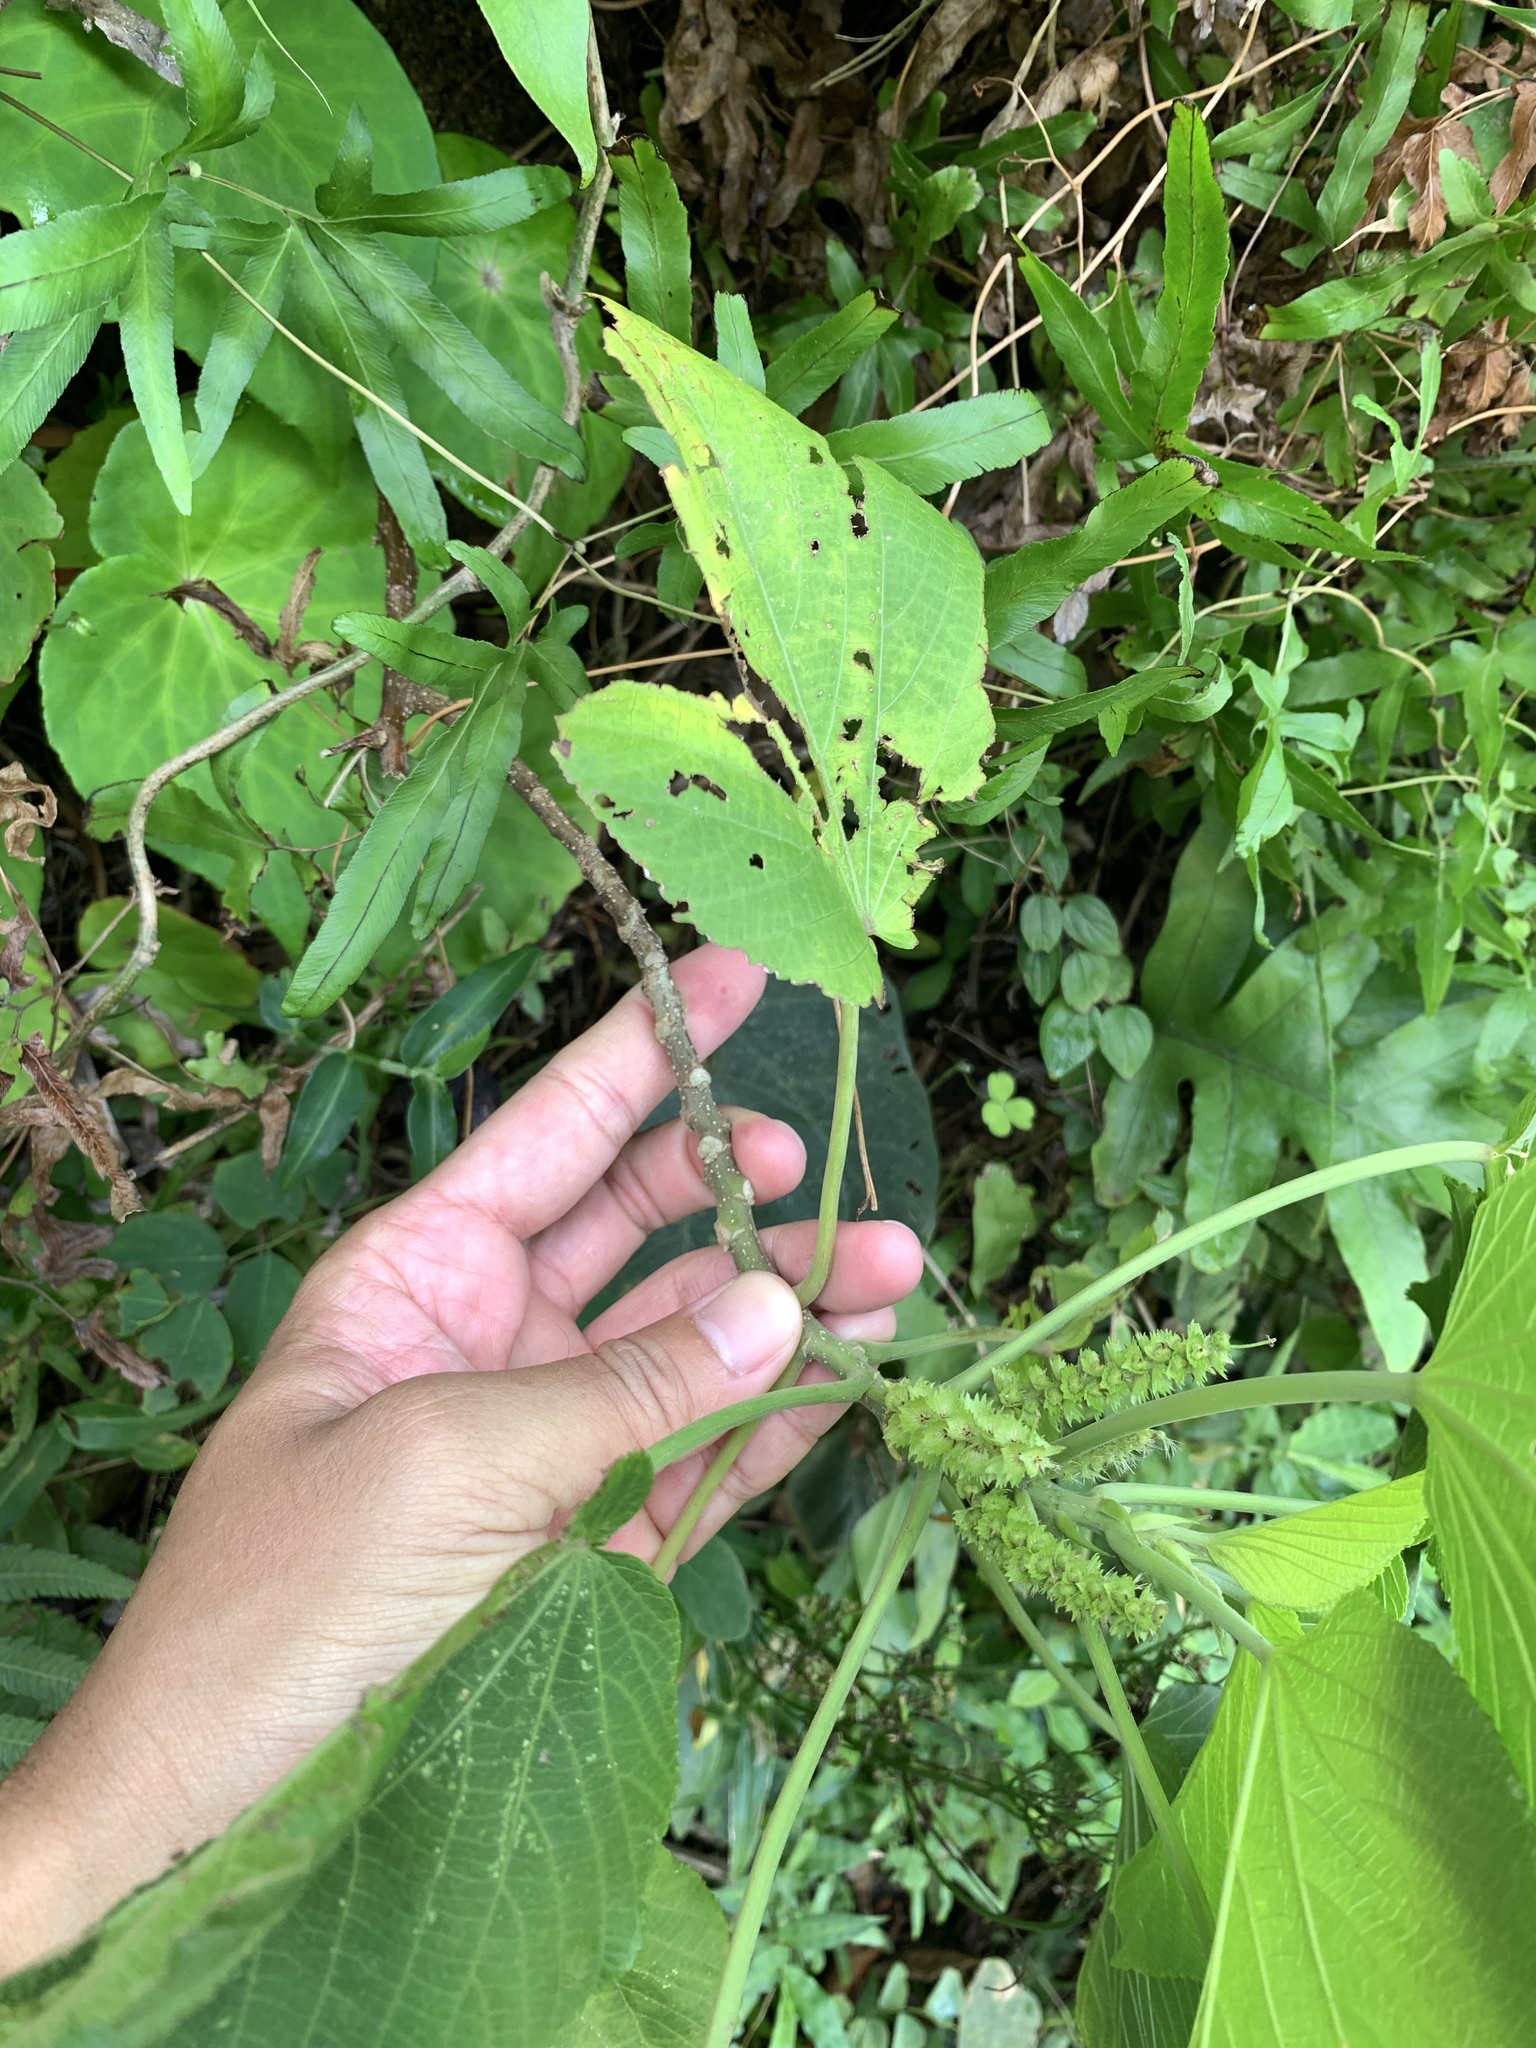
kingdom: Plantae
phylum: Tracheophyta
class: Magnoliopsida
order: Malpighiales
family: Euphorbiaceae
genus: Acalypha
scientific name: Acalypha grandibracteata
